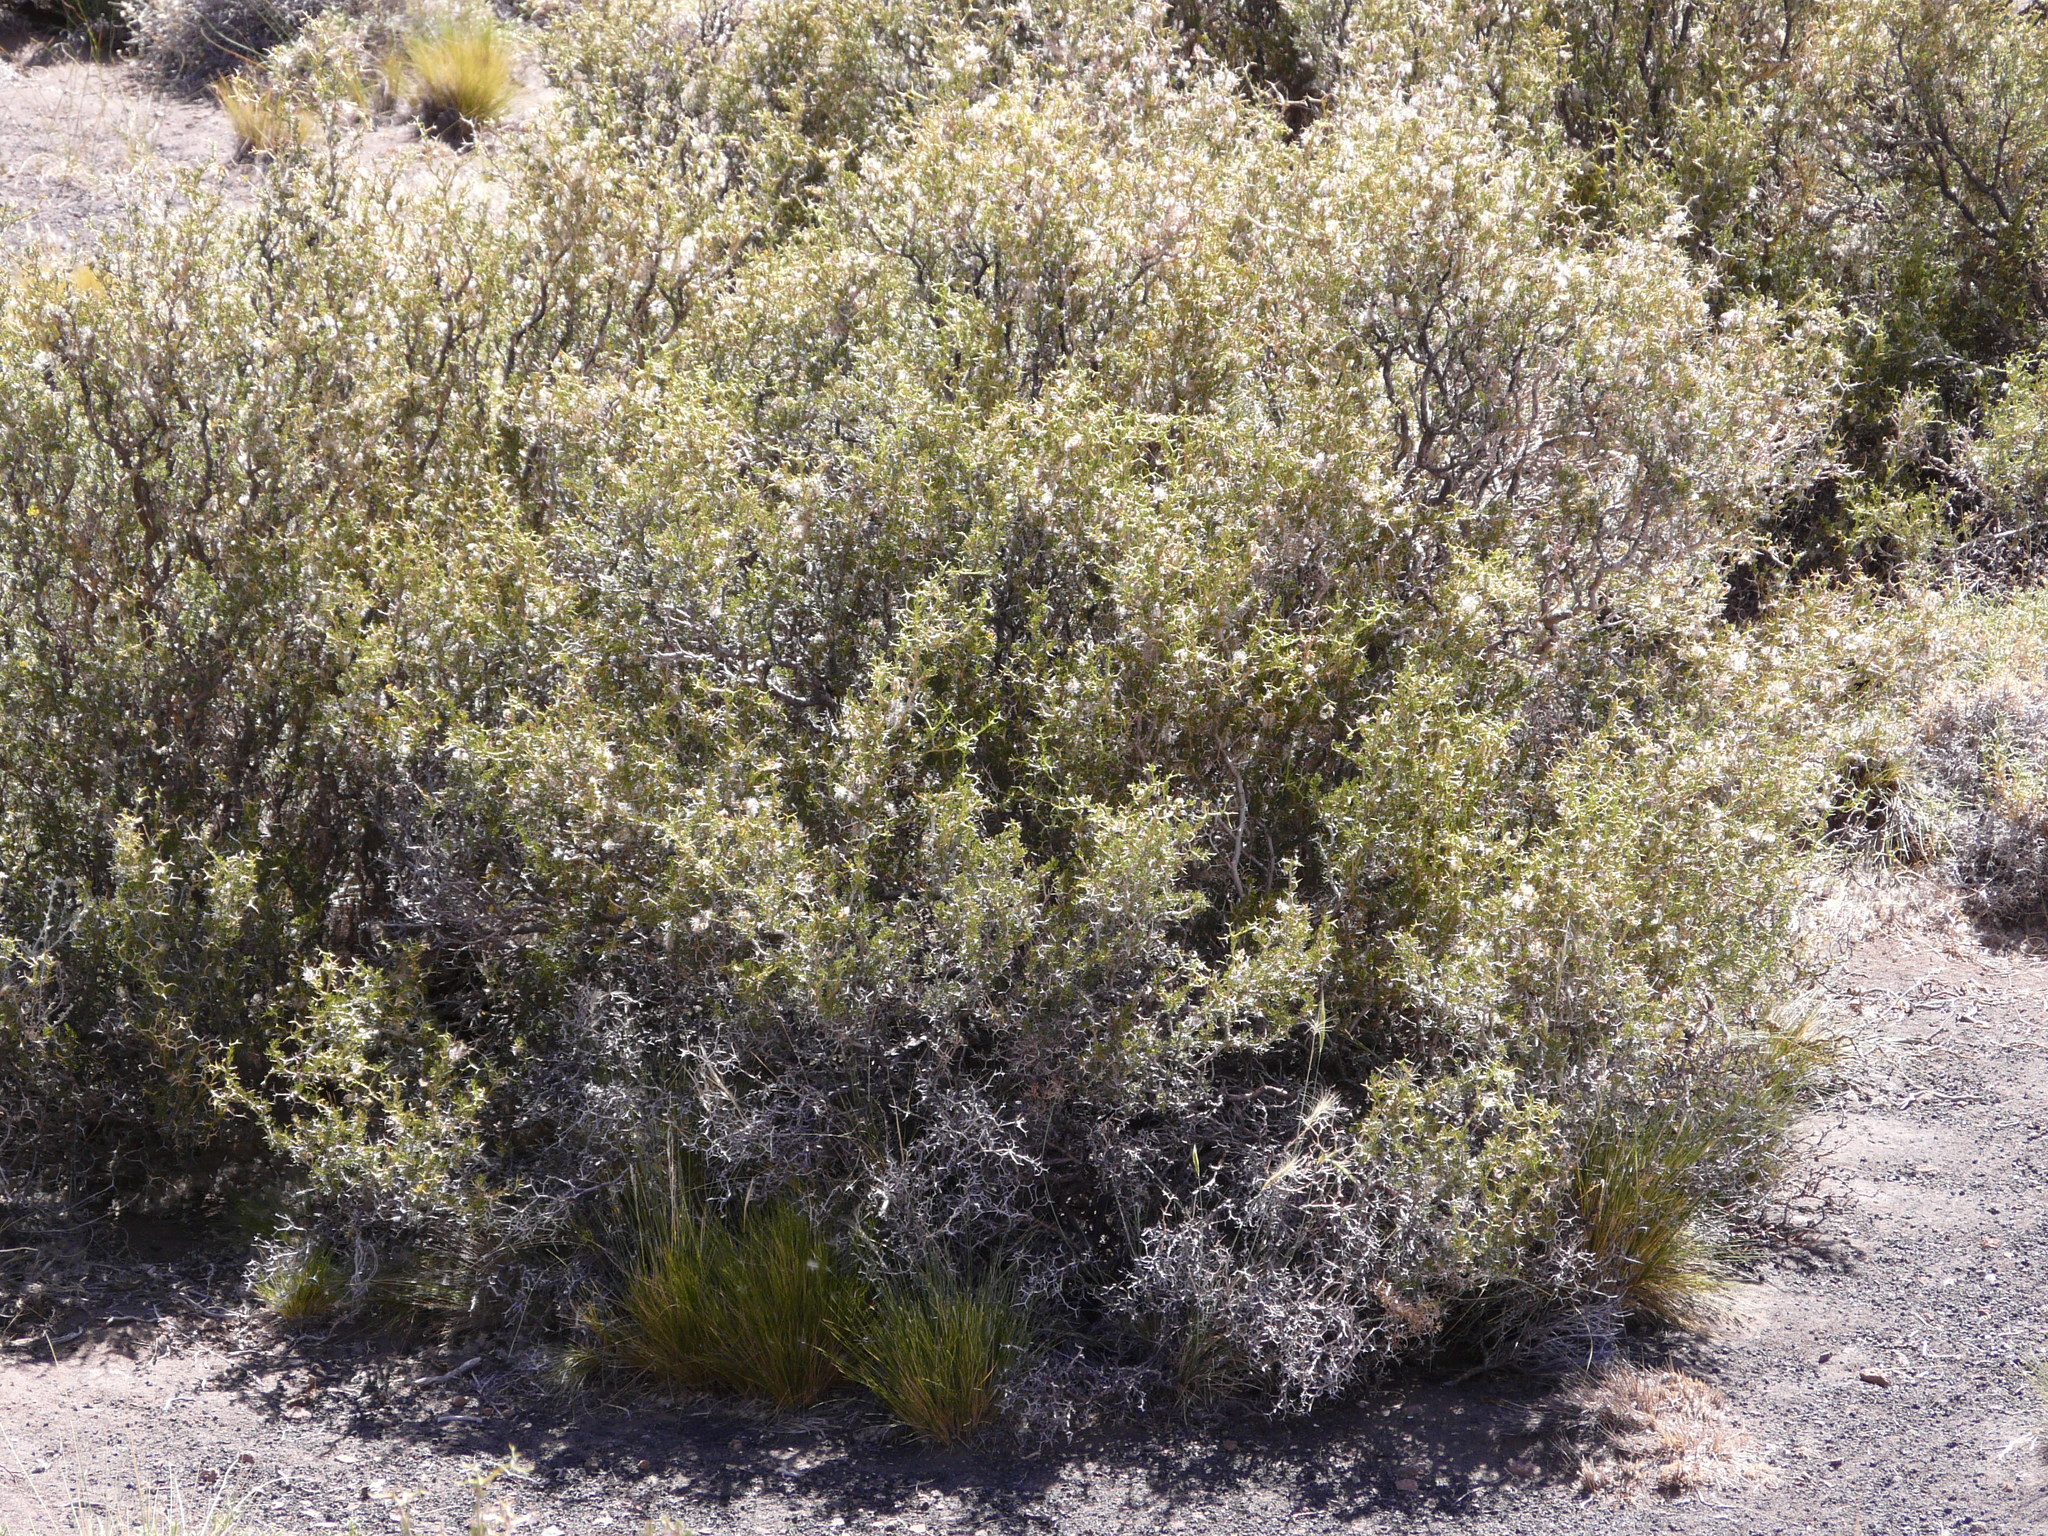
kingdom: Plantae
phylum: Tracheophyta
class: Magnoliopsida
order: Fabales
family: Fabaceae
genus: Adesmia
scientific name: Adesmia pinifolia
